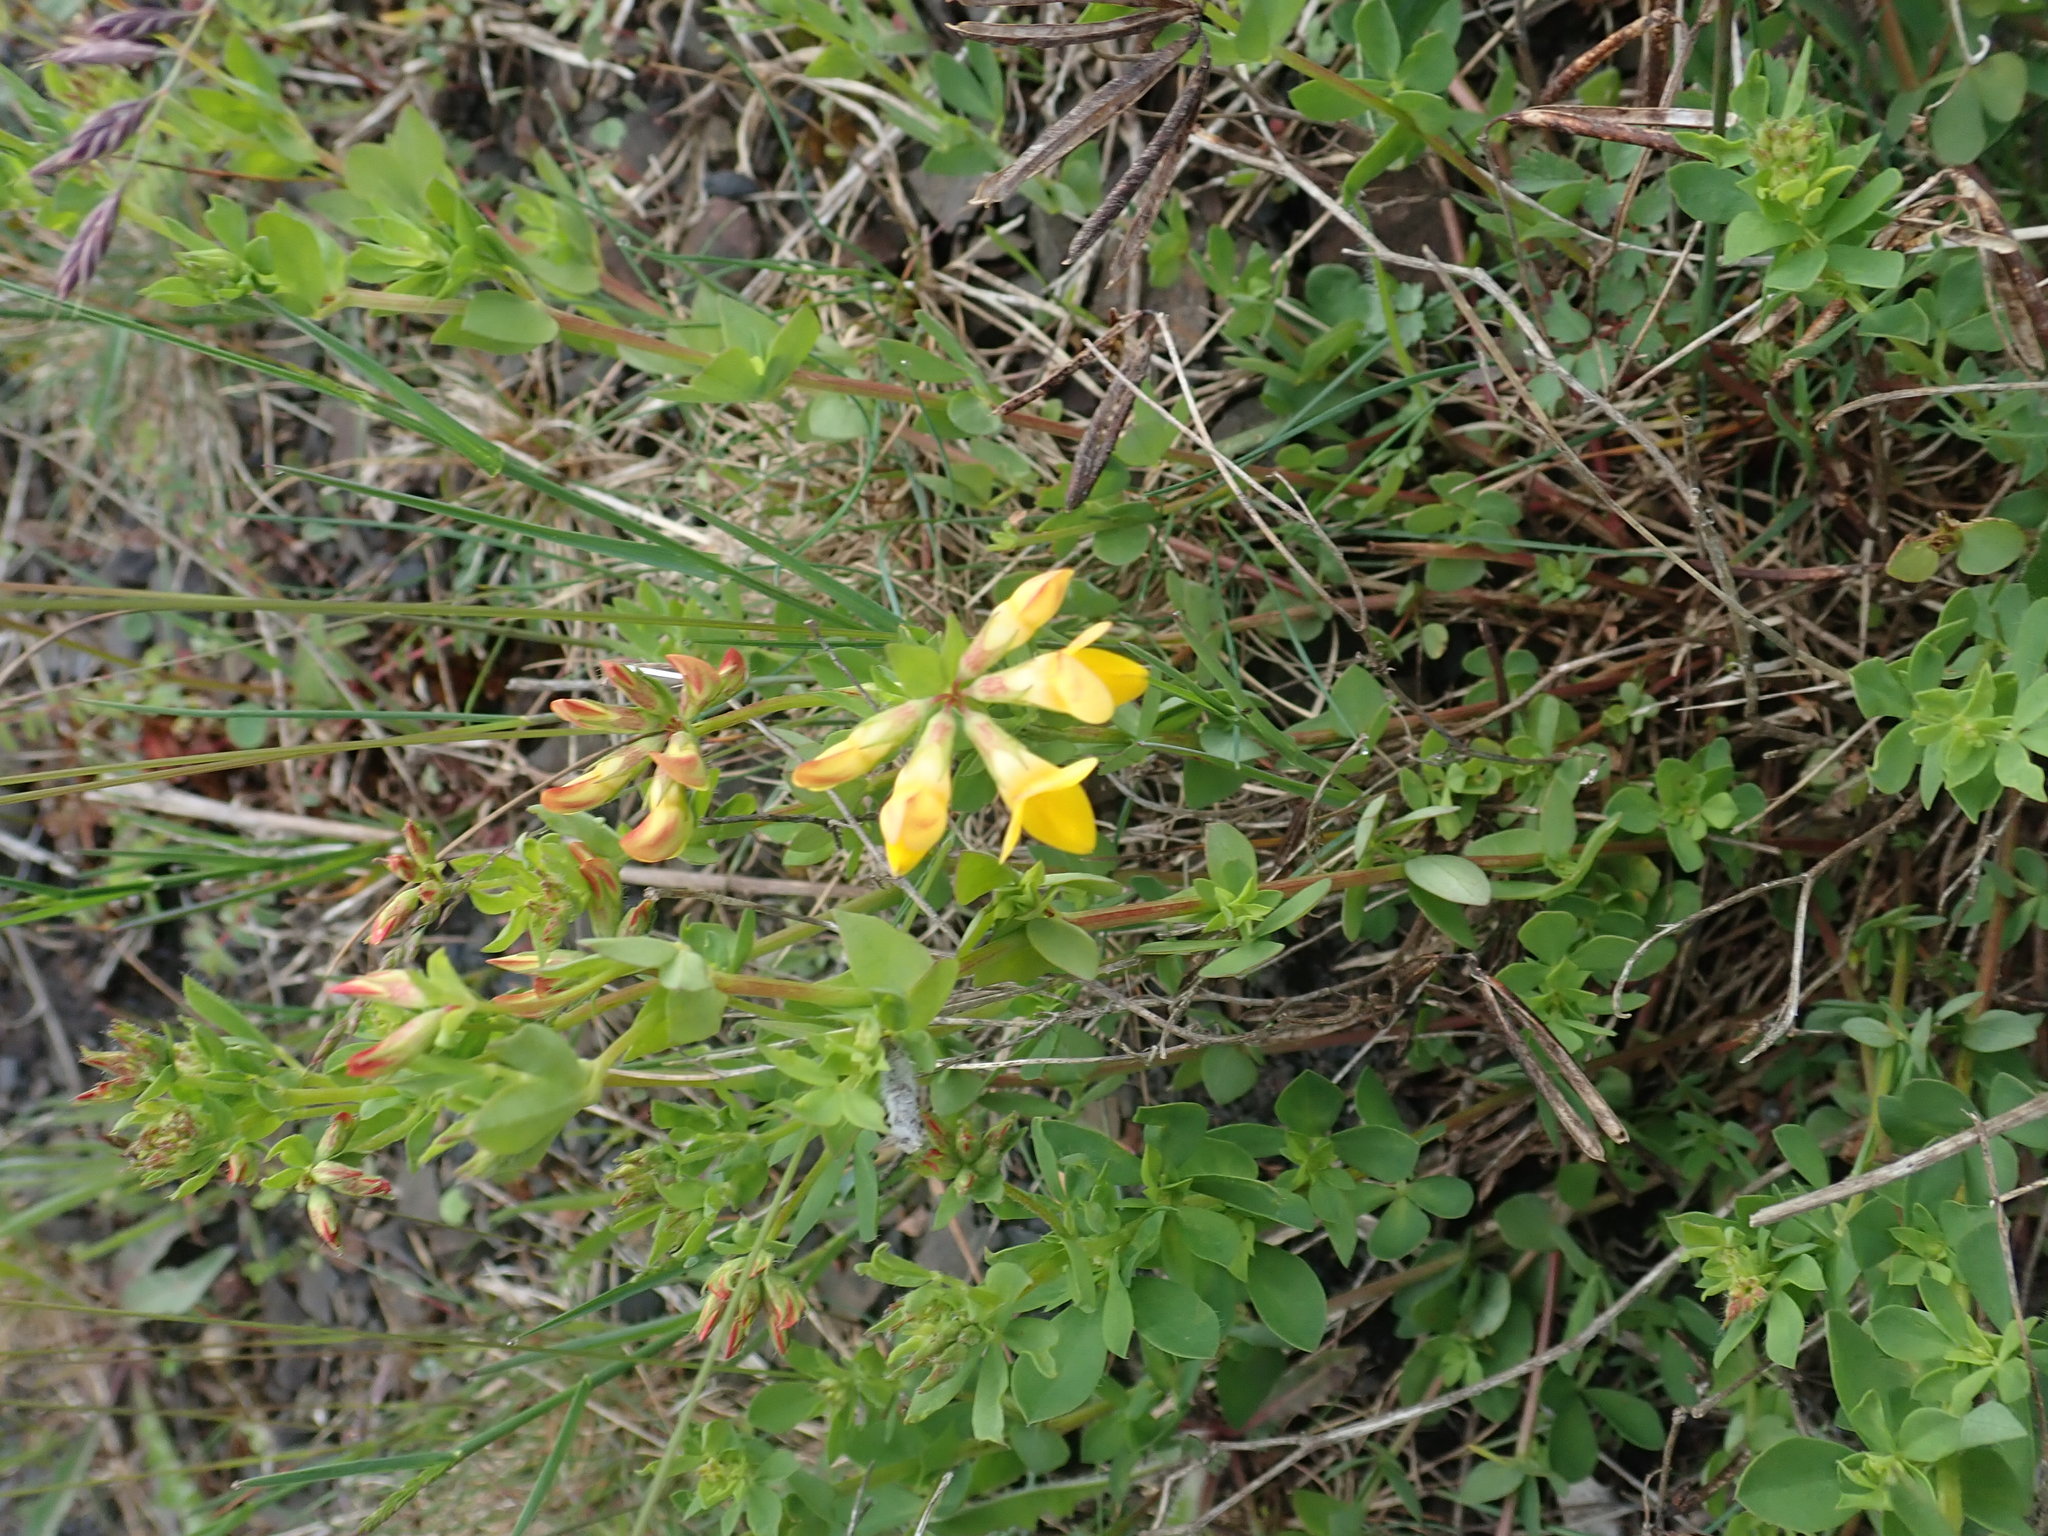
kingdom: Plantae
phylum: Tracheophyta
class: Magnoliopsida
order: Fabales
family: Fabaceae
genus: Lotus
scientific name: Lotus corniculatus
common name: Common bird's-foot-trefoil
